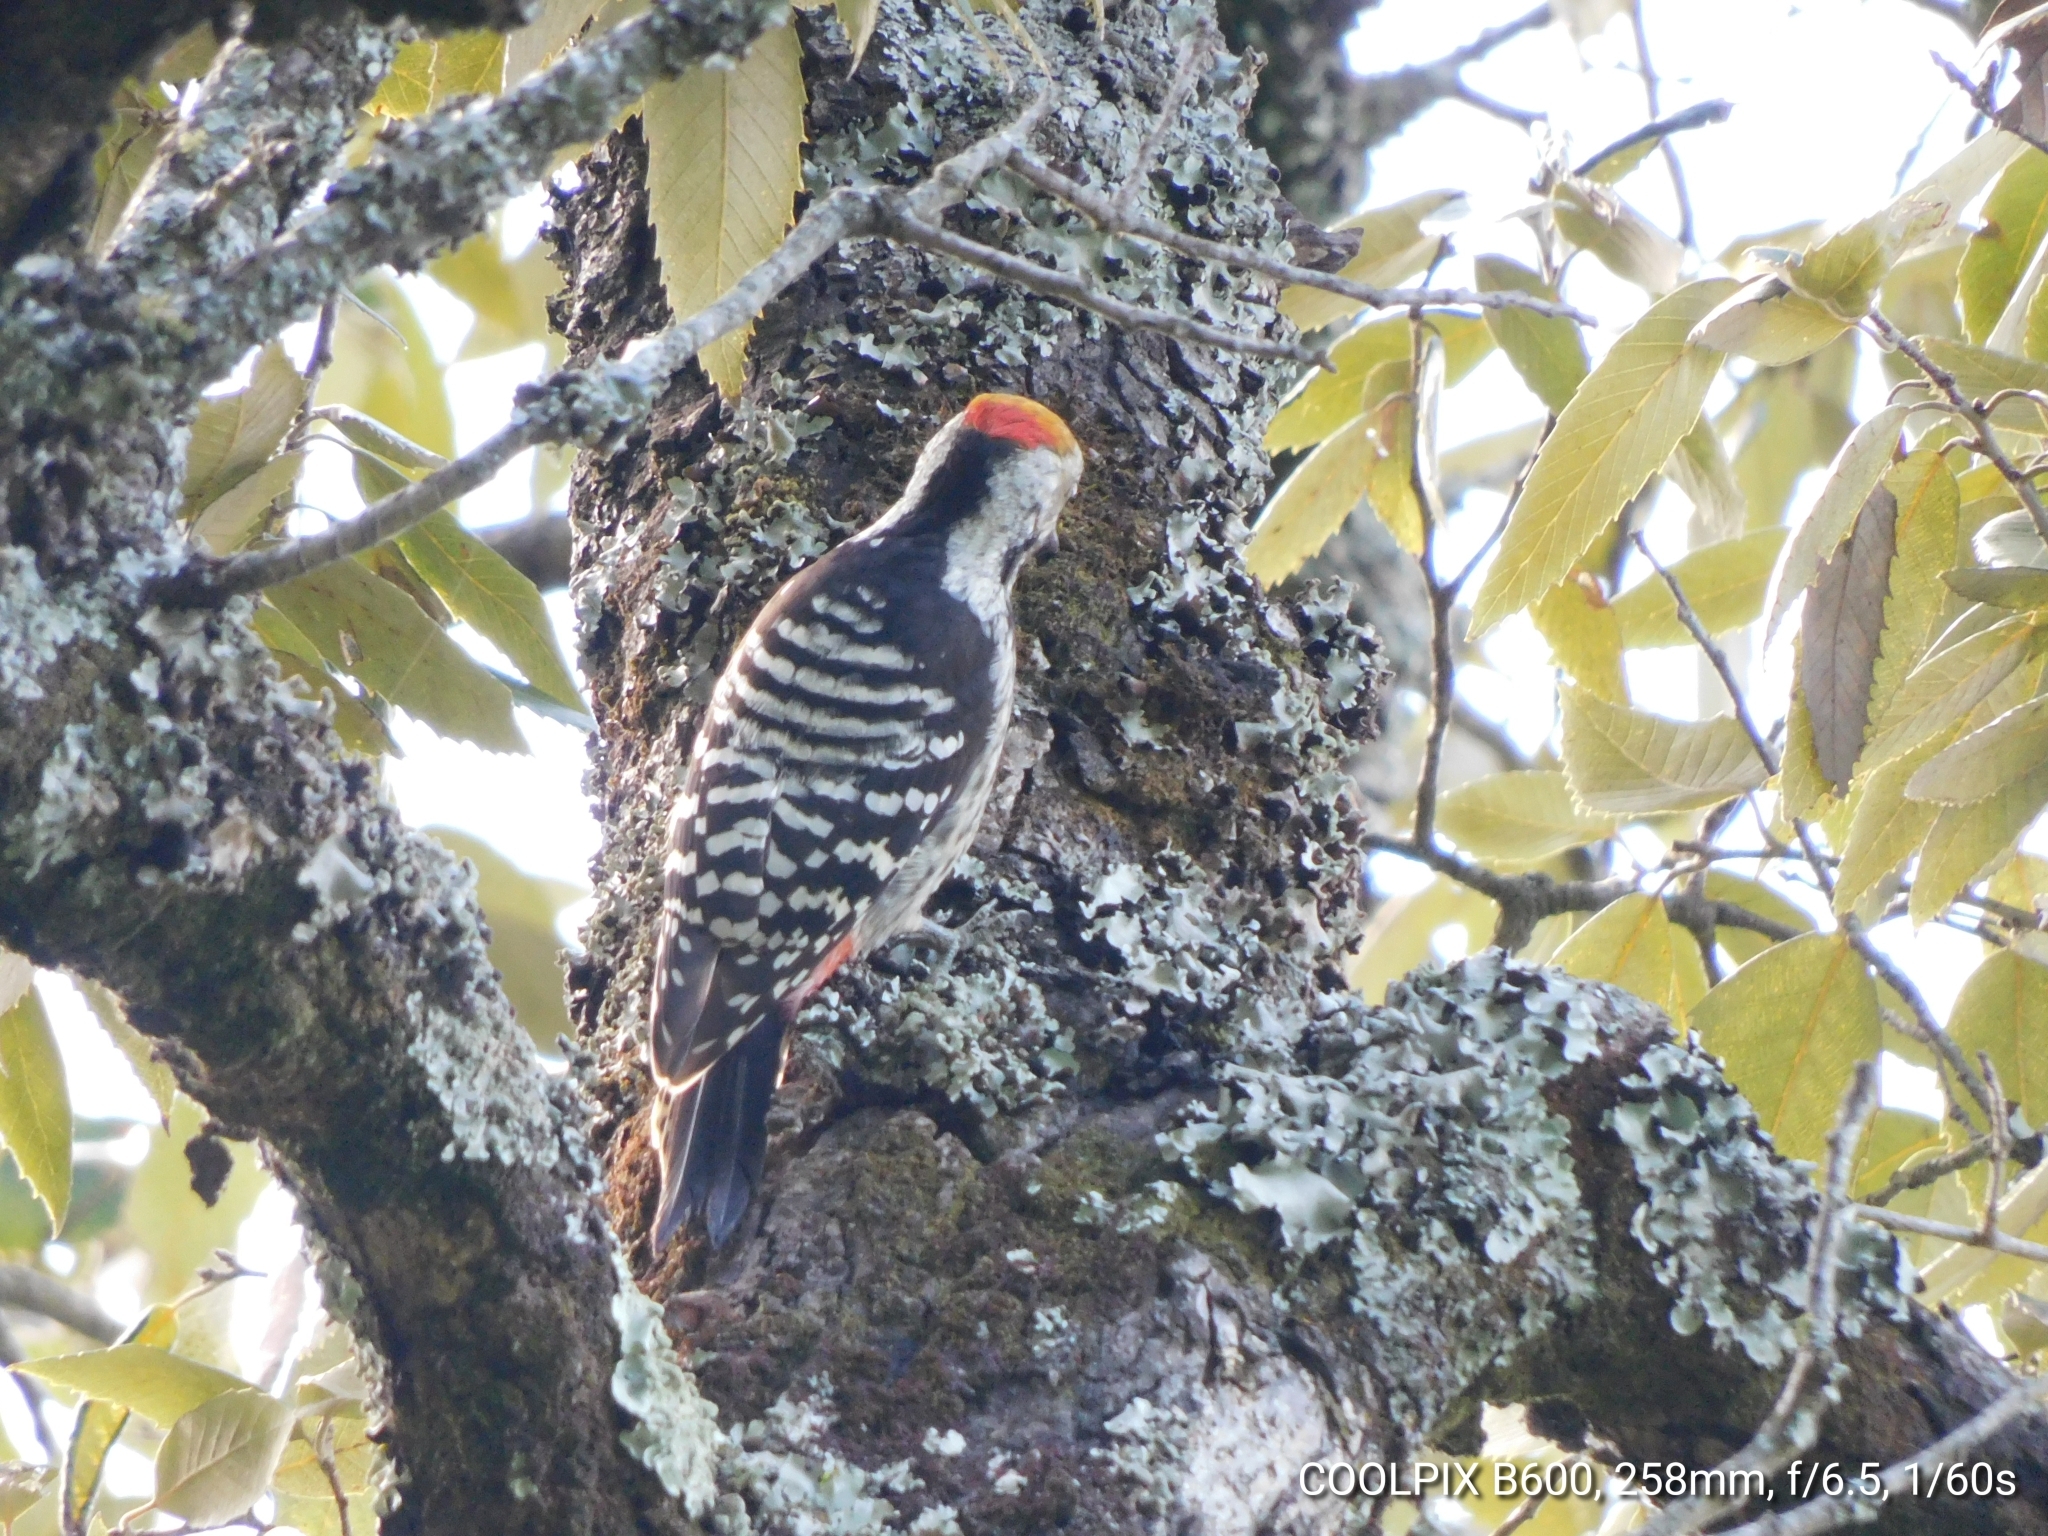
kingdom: Animalia
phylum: Chordata
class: Aves
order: Piciformes
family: Picidae
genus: Dendrocoptes
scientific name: Dendrocoptes auriceps
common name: Brown-fronted woodpecker
